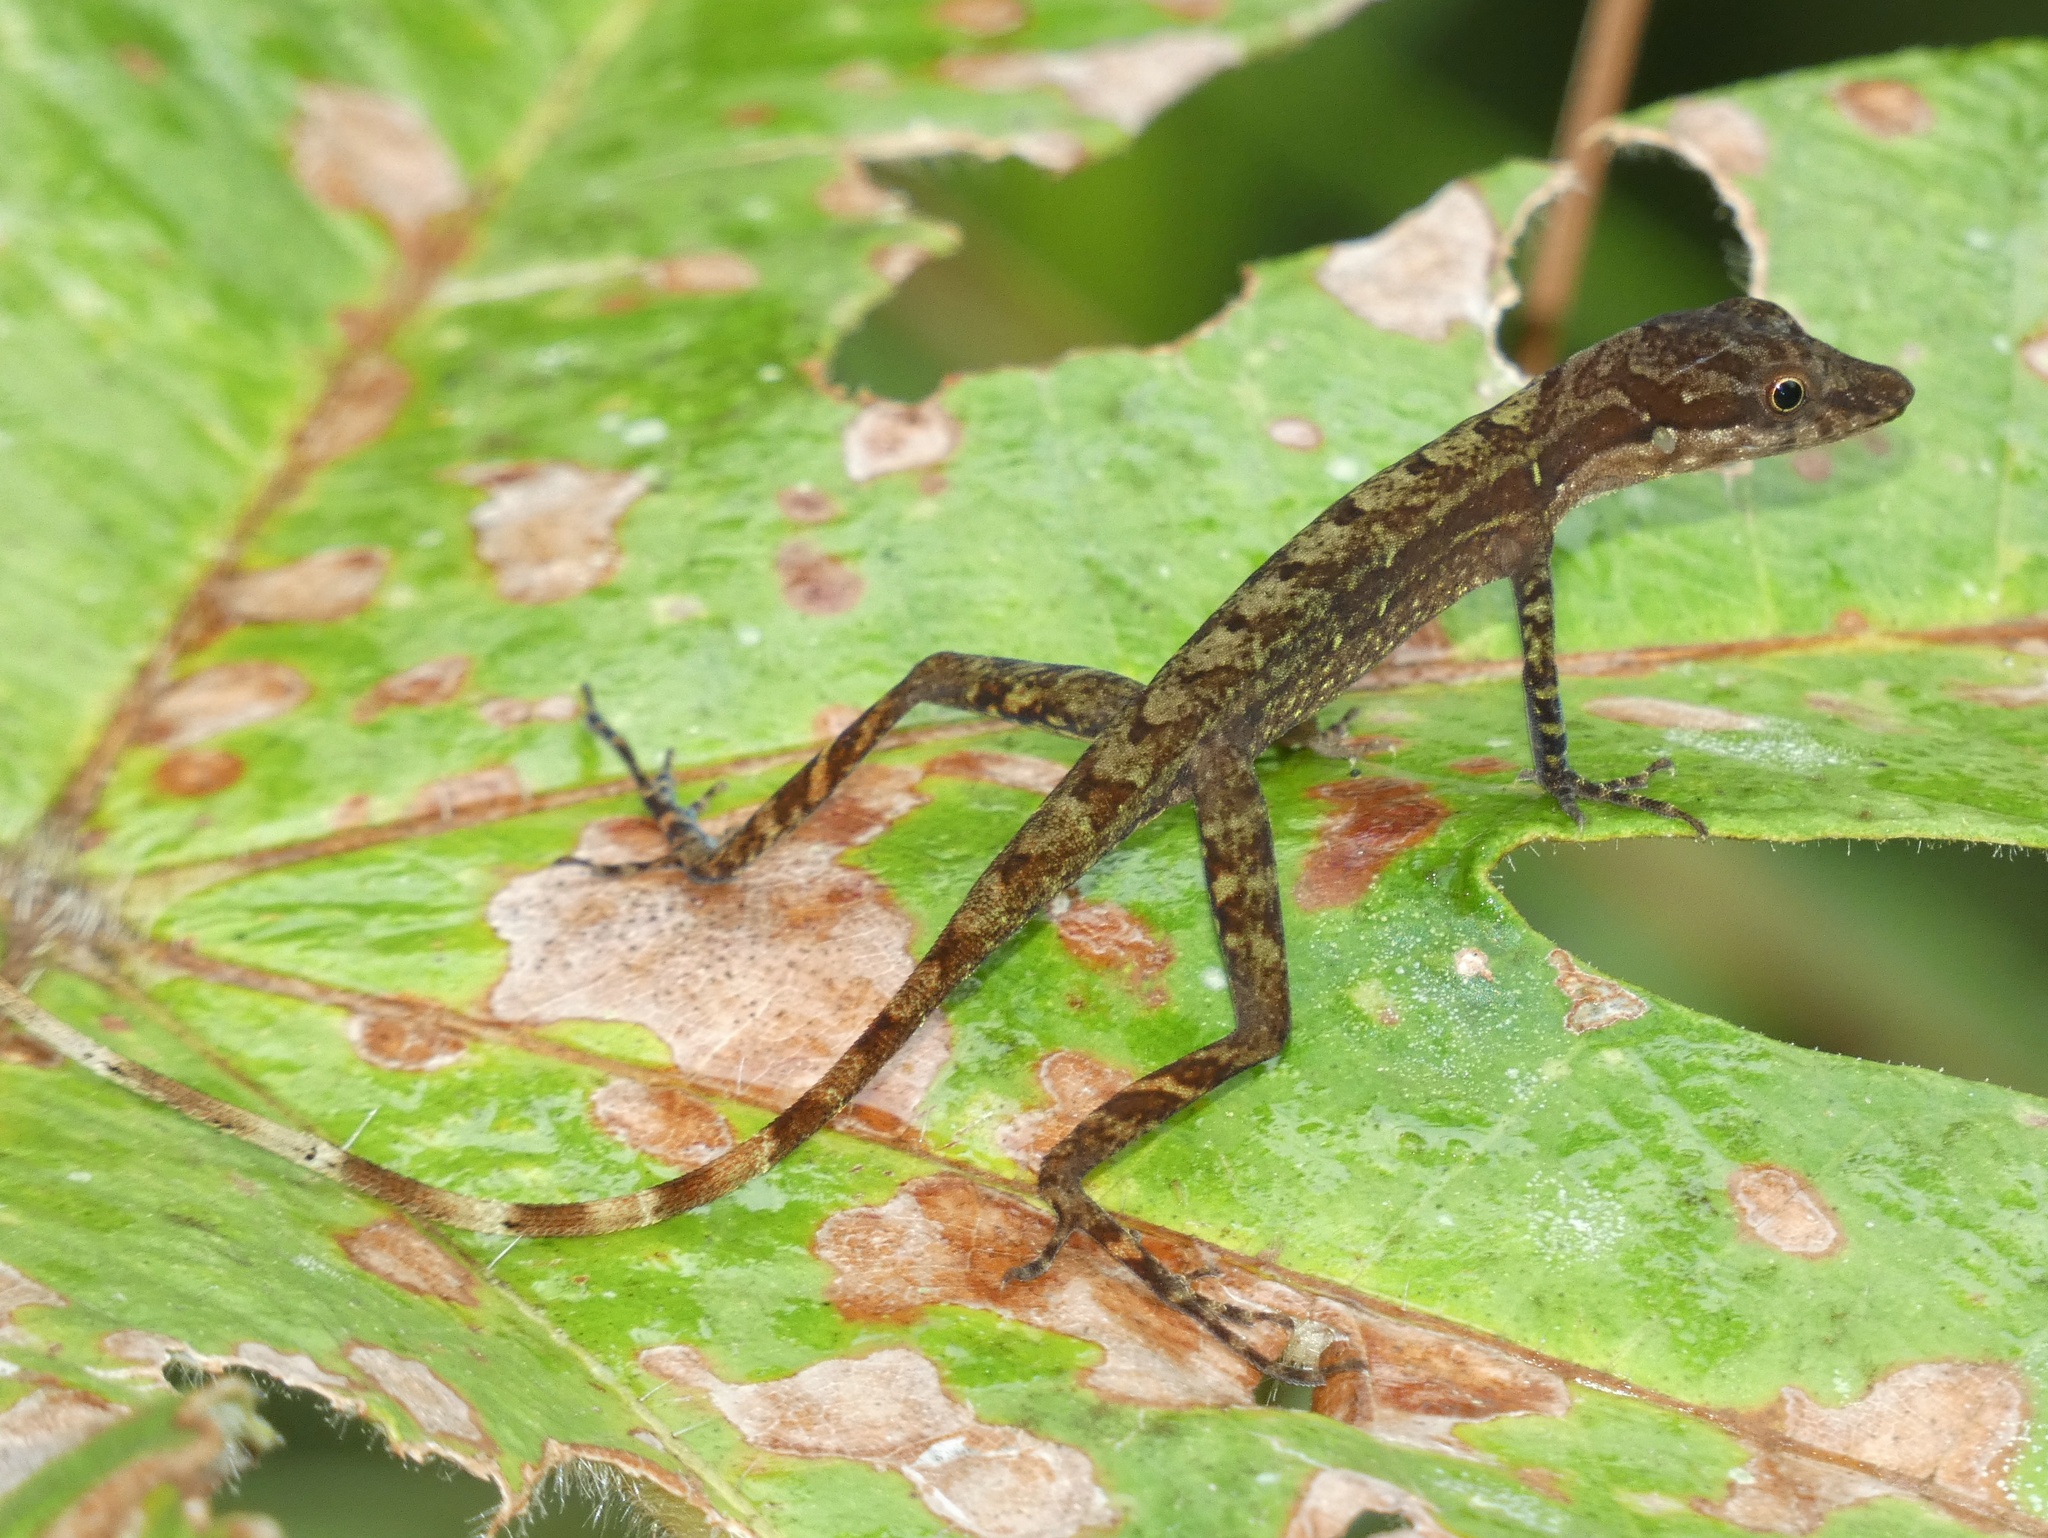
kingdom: Animalia
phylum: Chordata
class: Squamata
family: Dactyloidae
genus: Anolis
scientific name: Anolis limifrons
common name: Border anole
